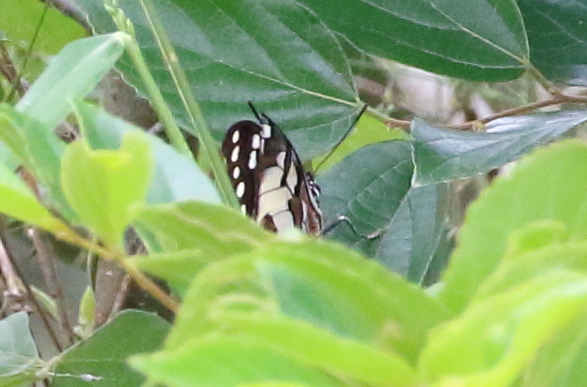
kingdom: Animalia
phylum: Arthropoda
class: Insecta
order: Lepidoptera
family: Nymphalidae
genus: Charaxes
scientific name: Charaxes
